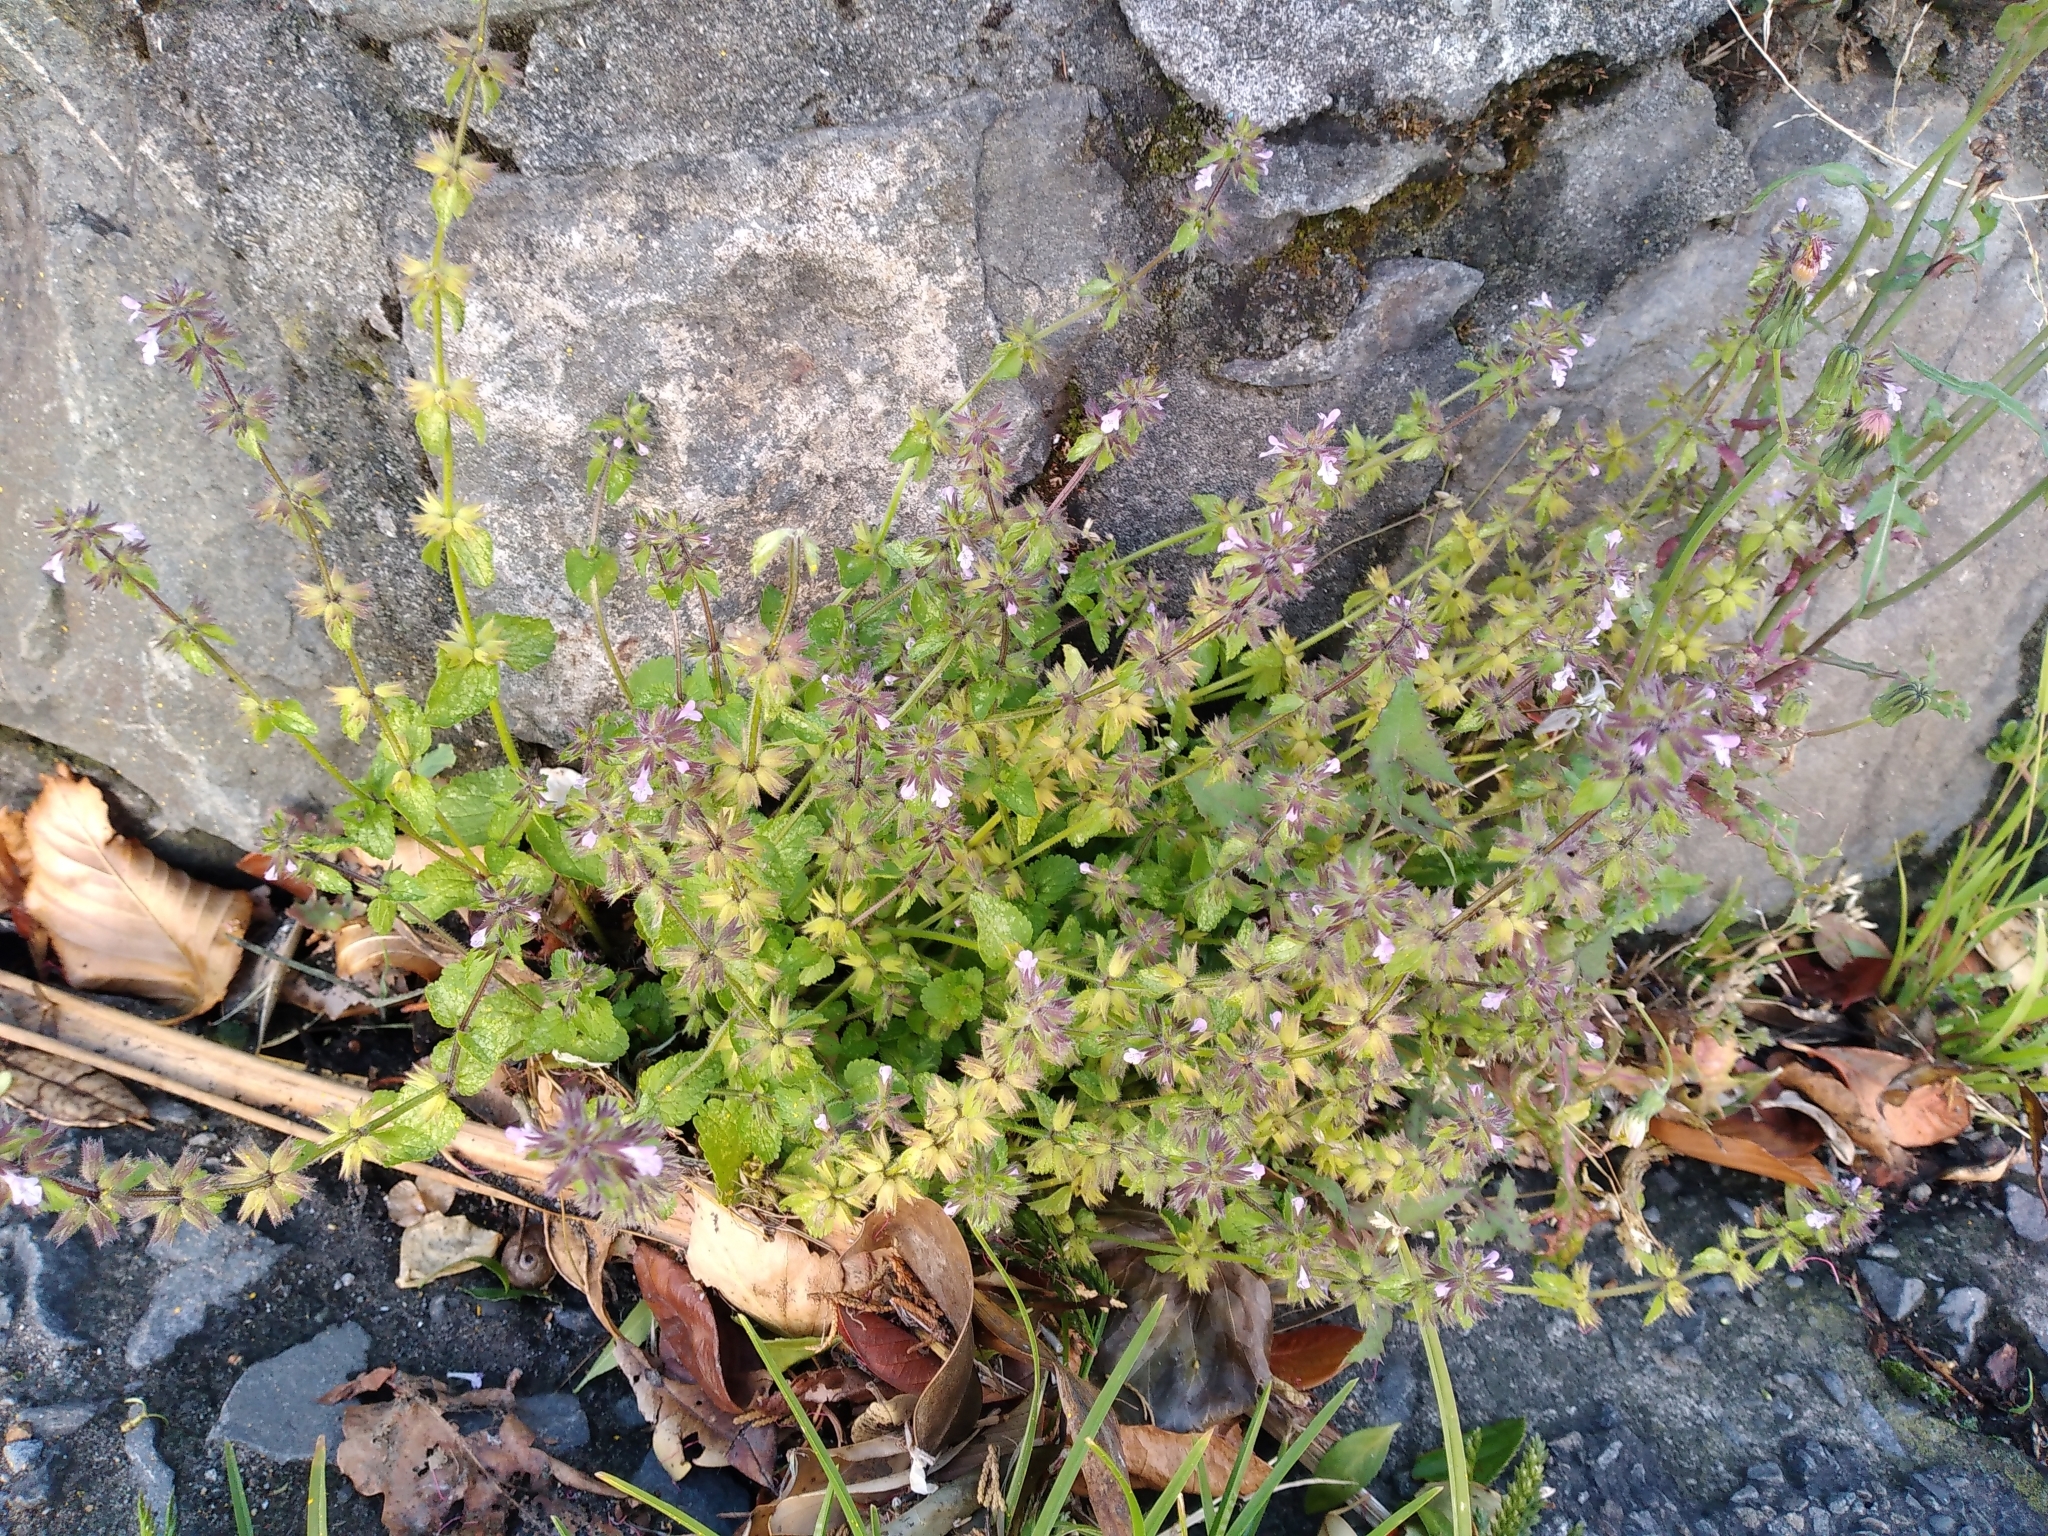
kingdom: Plantae
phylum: Tracheophyta
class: Magnoliopsida
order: Lamiales
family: Lamiaceae
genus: Stachys
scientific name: Stachys arvensis
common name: Field woundwort
